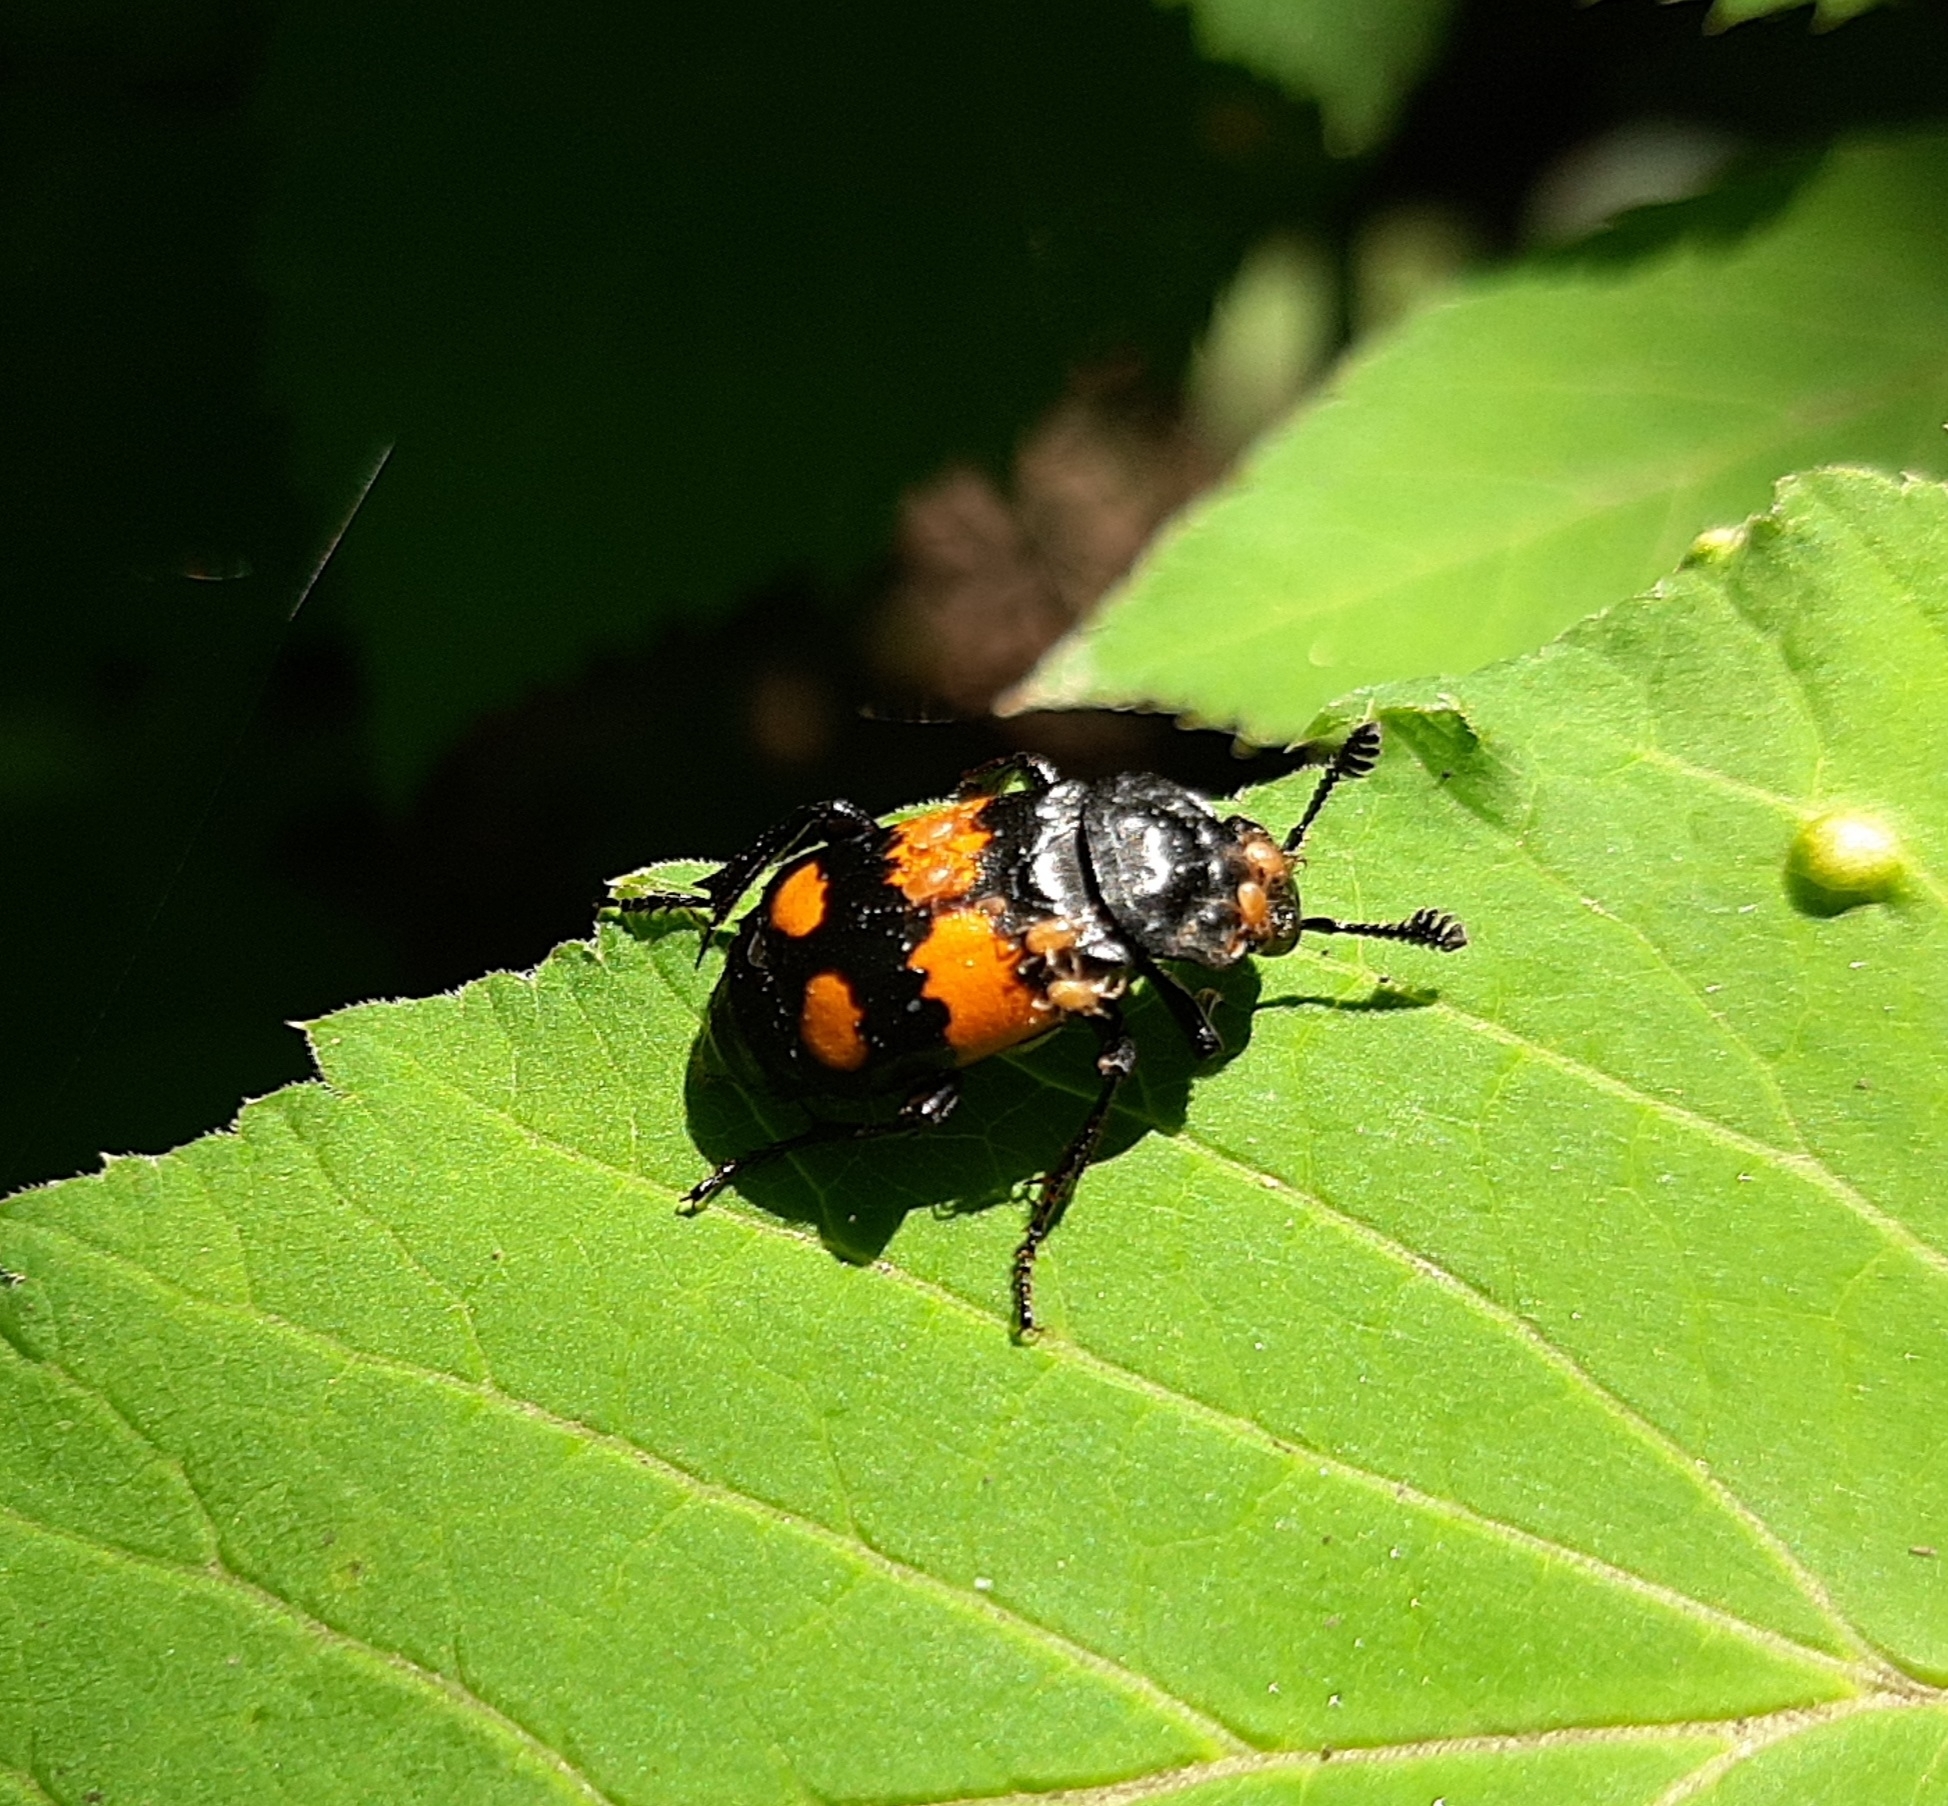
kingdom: Animalia
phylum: Arthropoda
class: Insecta
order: Coleoptera
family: Staphylinidae
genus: Nicrophorus
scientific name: Nicrophorus vespilloides
